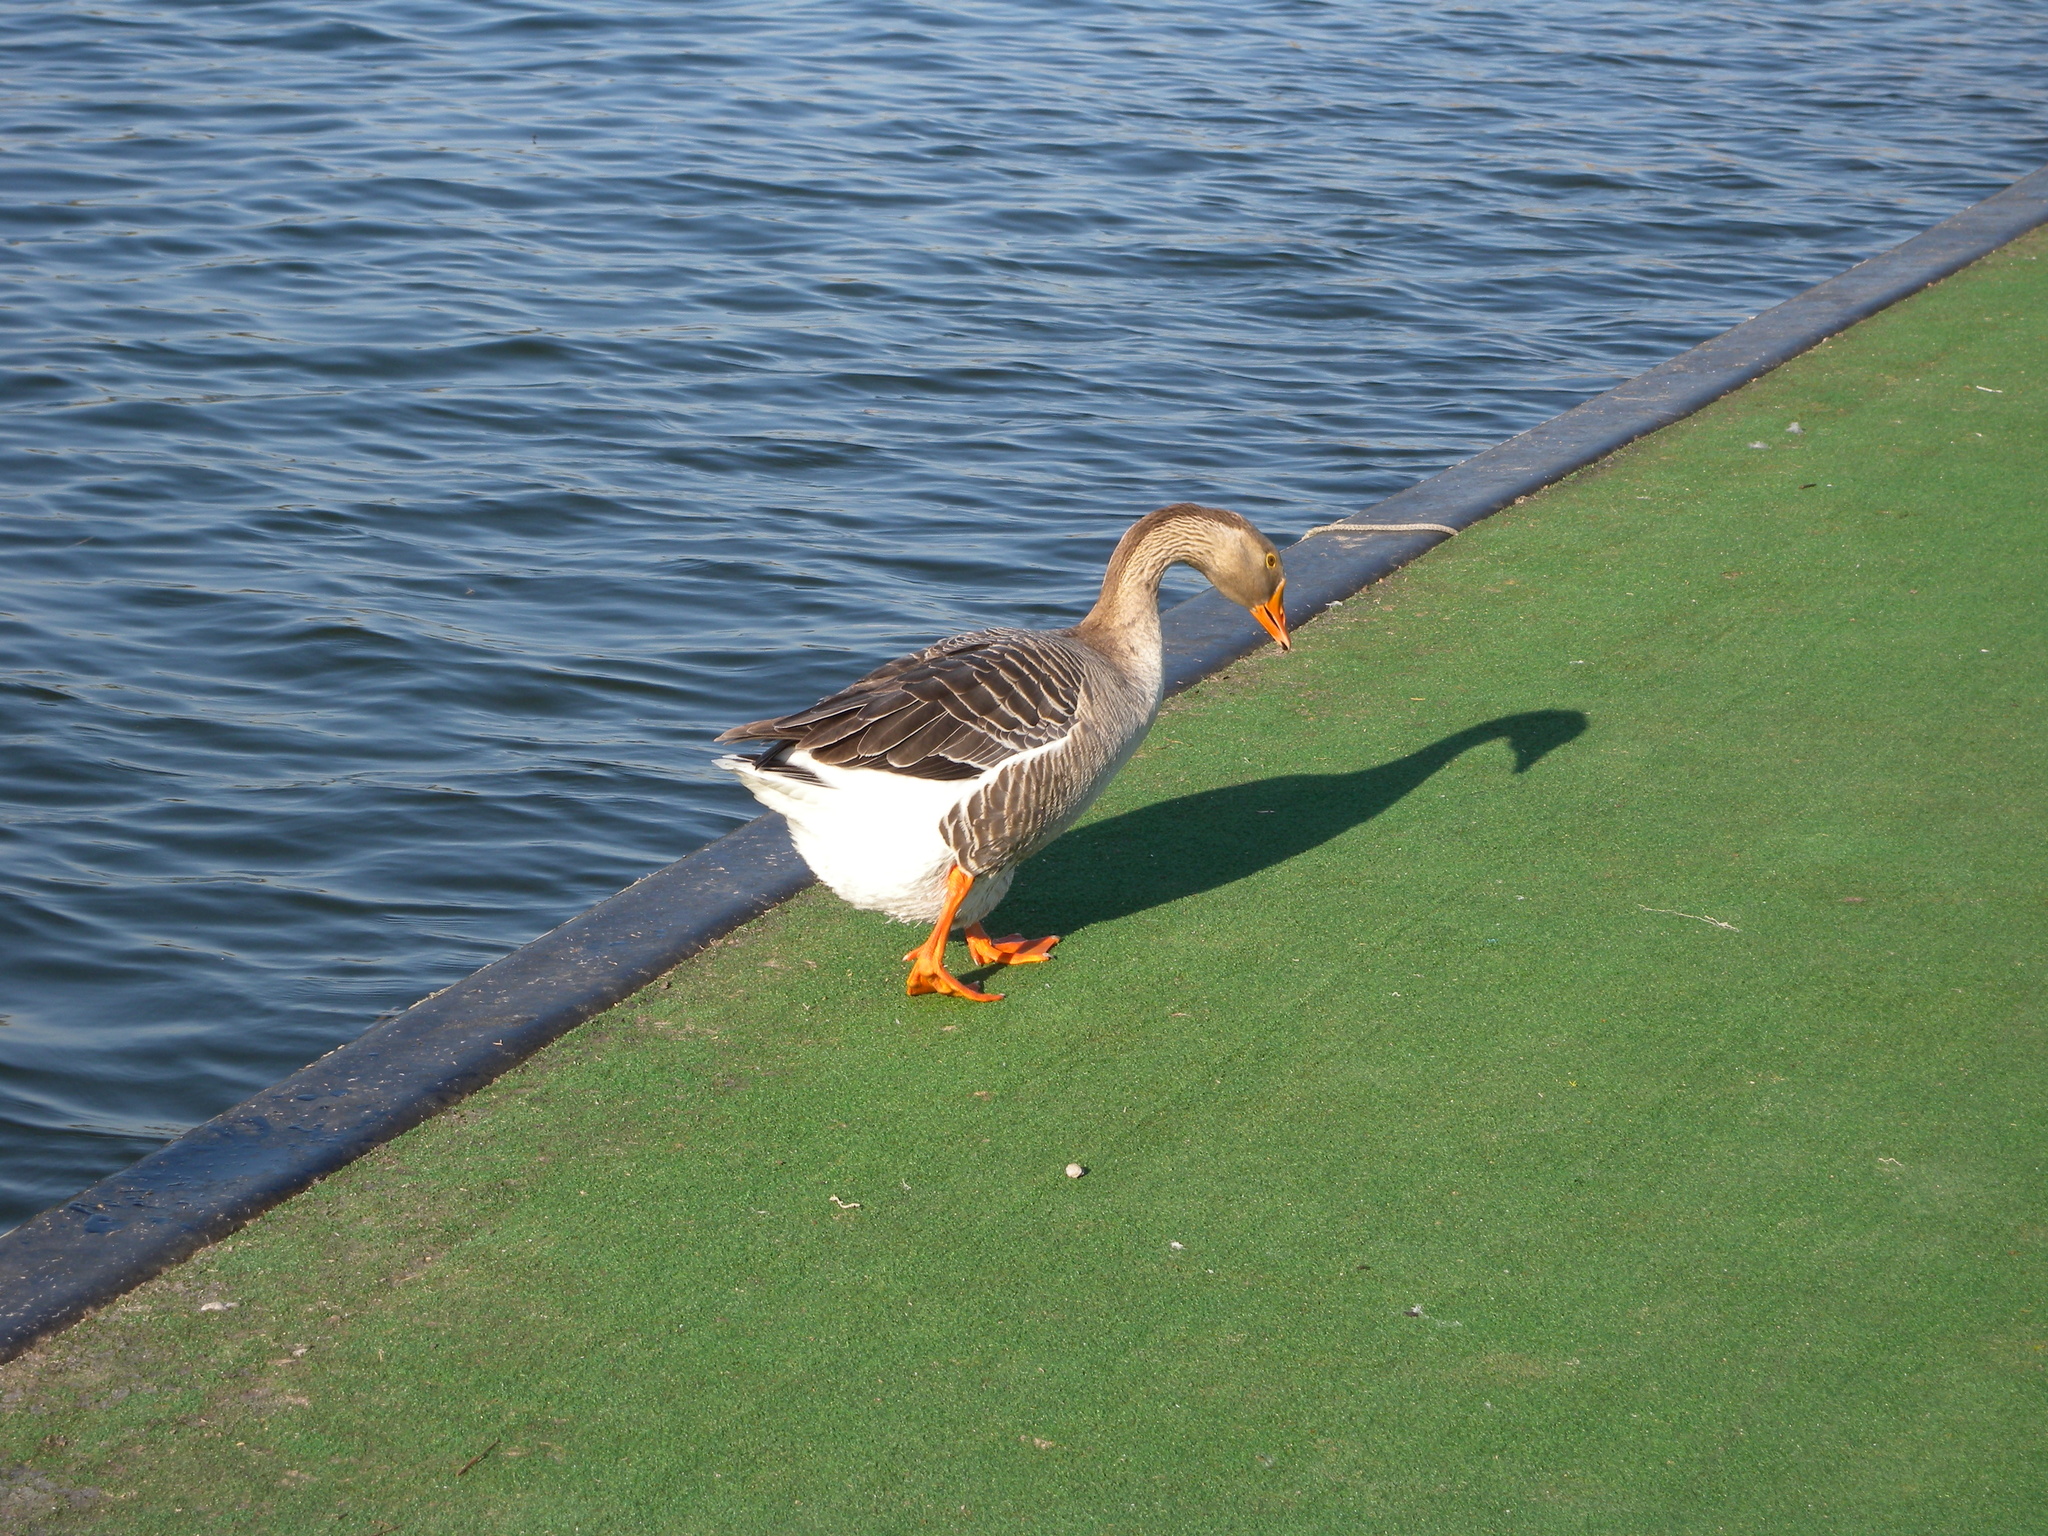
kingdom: Animalia
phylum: Chordata
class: Aves
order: Anseriformes
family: Anatidae
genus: Anser
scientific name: Anser anser
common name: Greylag goose
